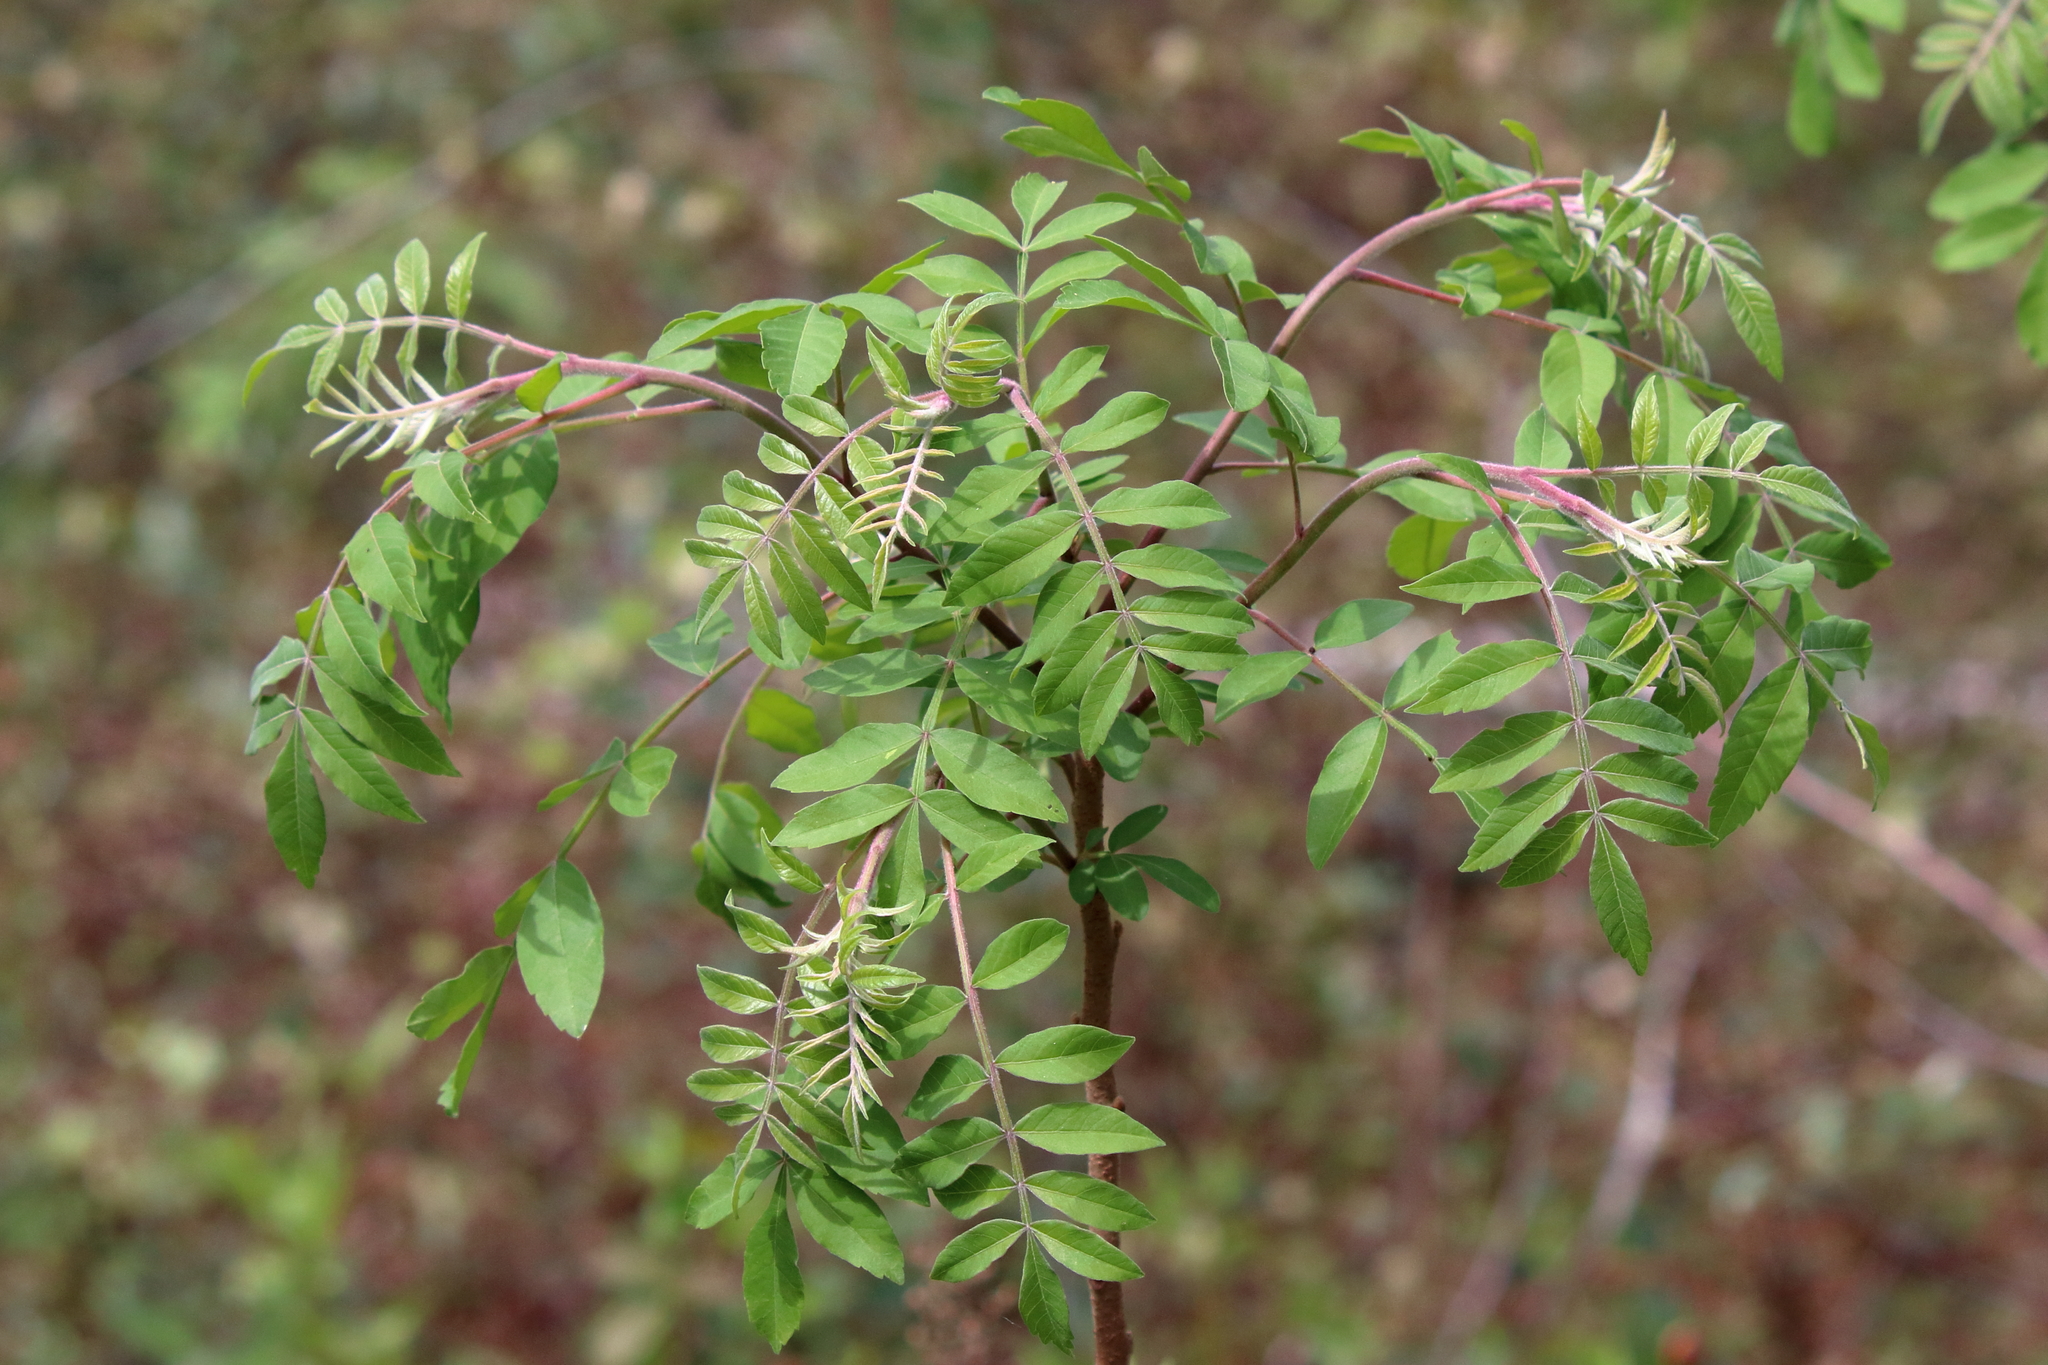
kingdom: Plantae
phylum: Tracheophyta
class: Magnoliopsida
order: Sapindales
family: Anacardiaceae
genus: Rhus
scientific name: Rhus copallina
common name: Shining sumac
